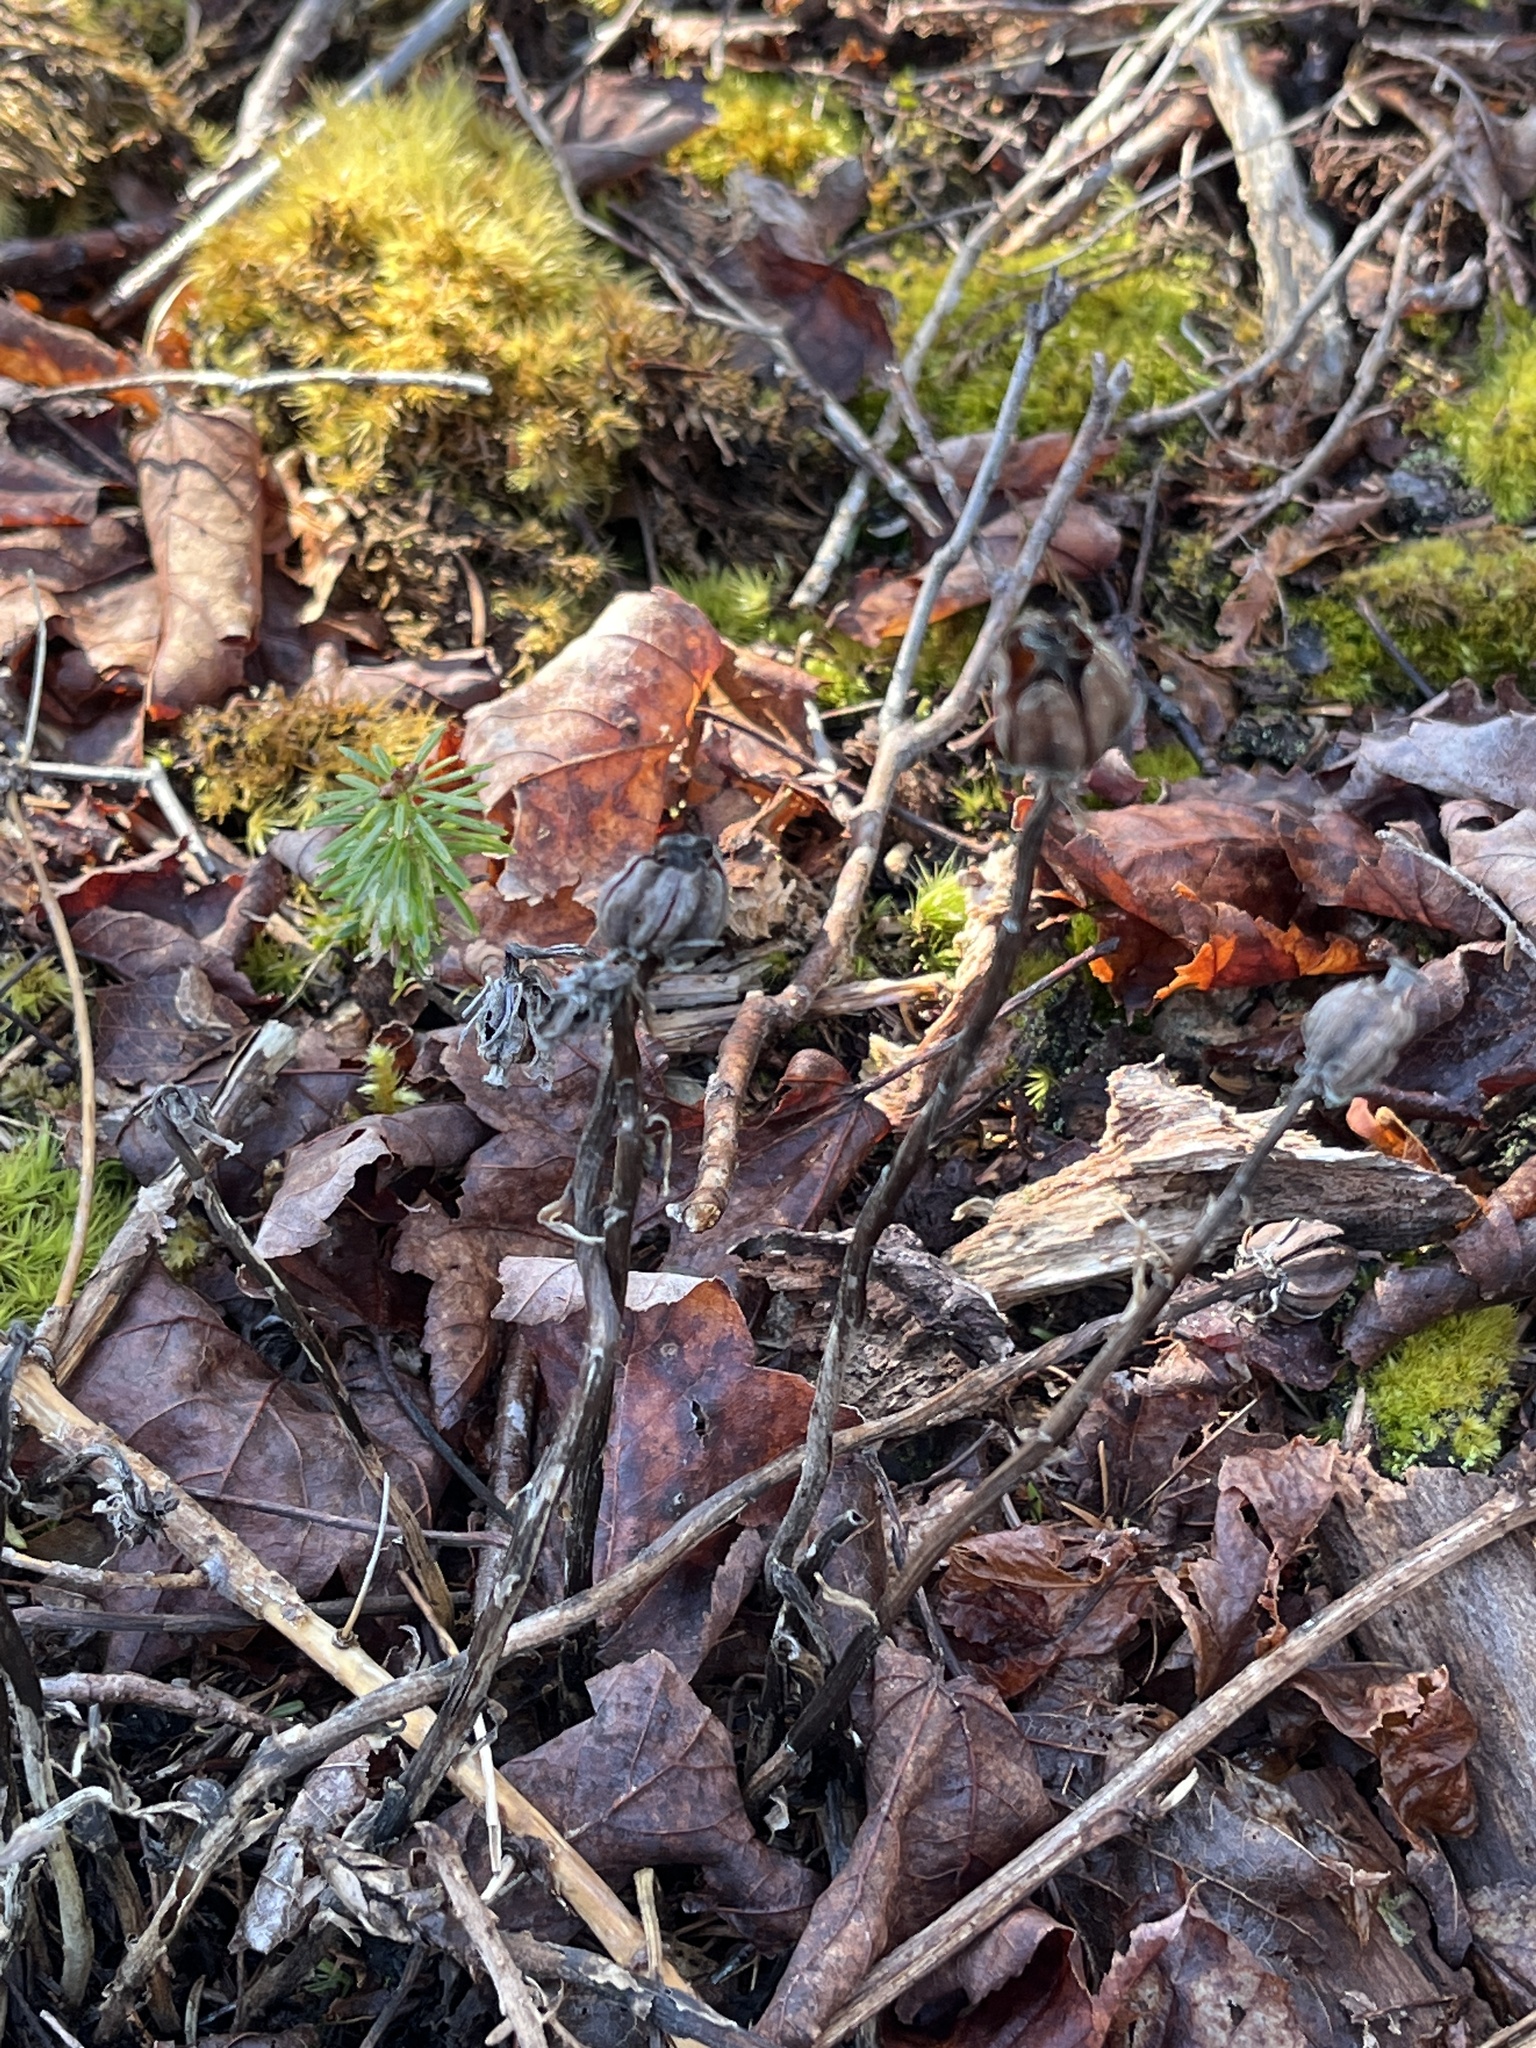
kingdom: Plantae
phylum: Tracheophyta
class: Magnoliopsida
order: Ericales
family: Ericaceae
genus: Monotropa
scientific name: Monotropa uniflora
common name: Convulsion root
